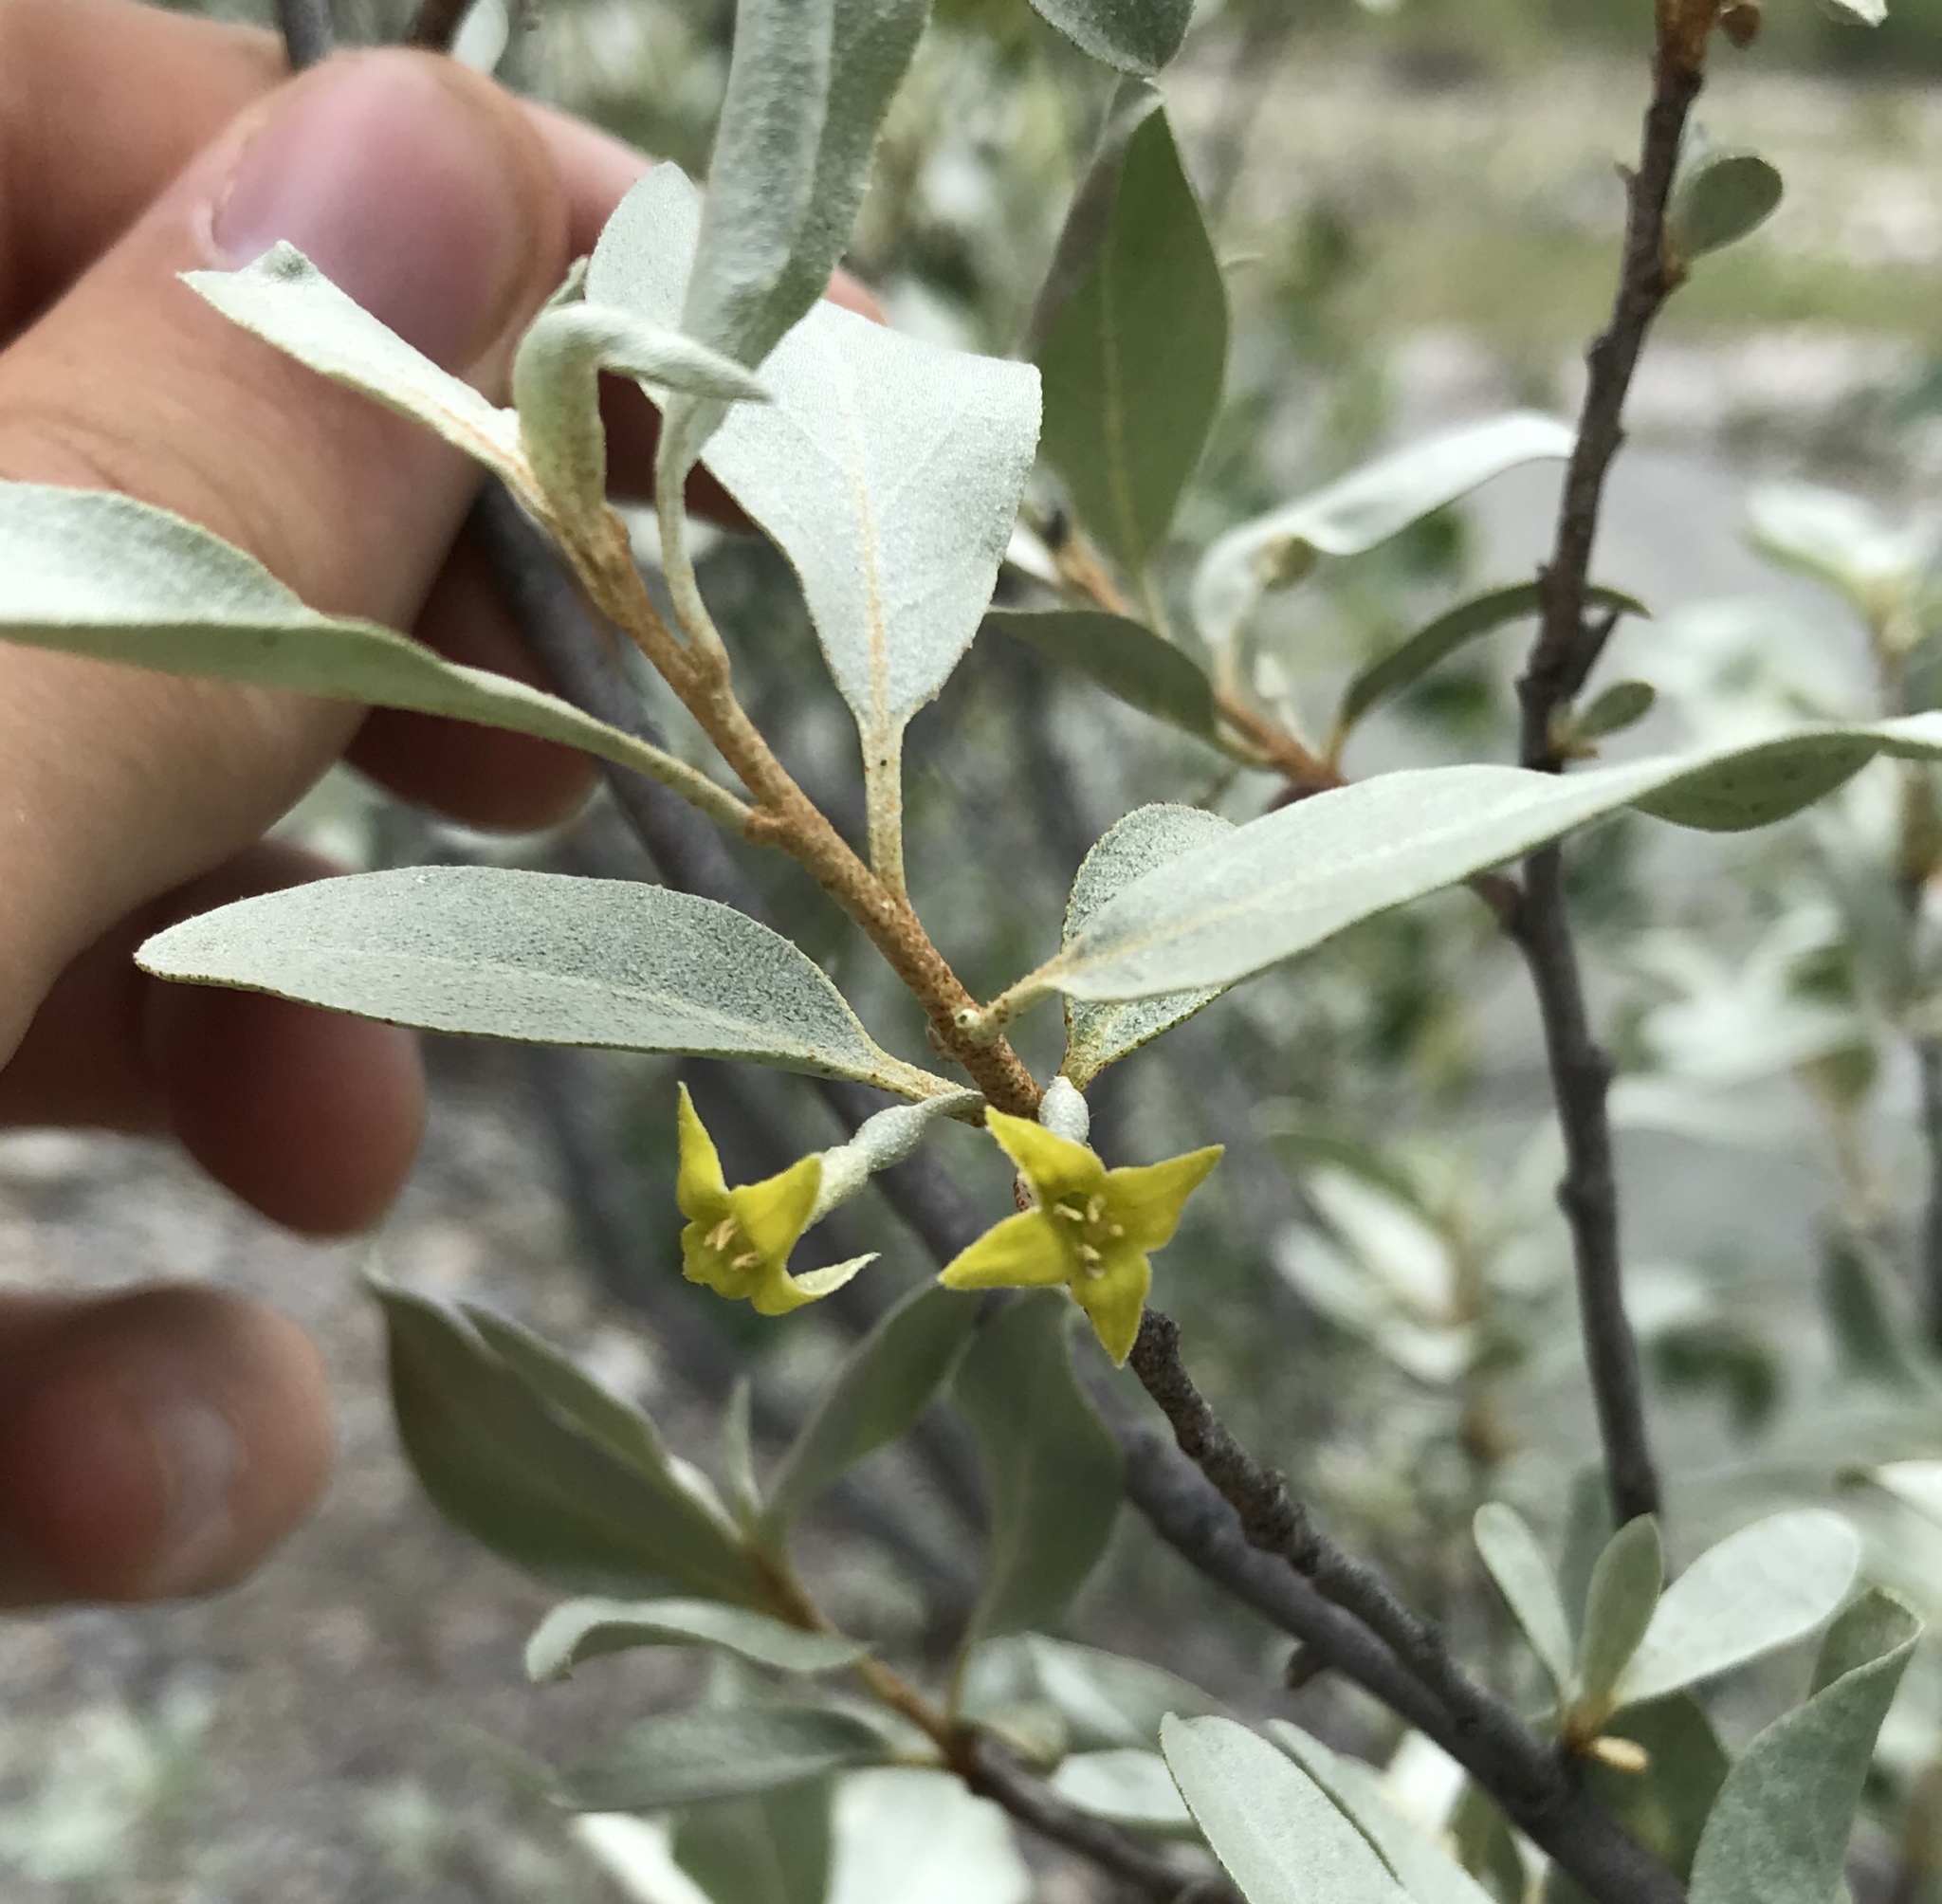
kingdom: Plantae
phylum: Tracheophyta
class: Magnoliopsida
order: Rosales
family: Elaeagnaceae
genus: Elaeagnus
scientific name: Elaeagnus commutata
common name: Silverberry
